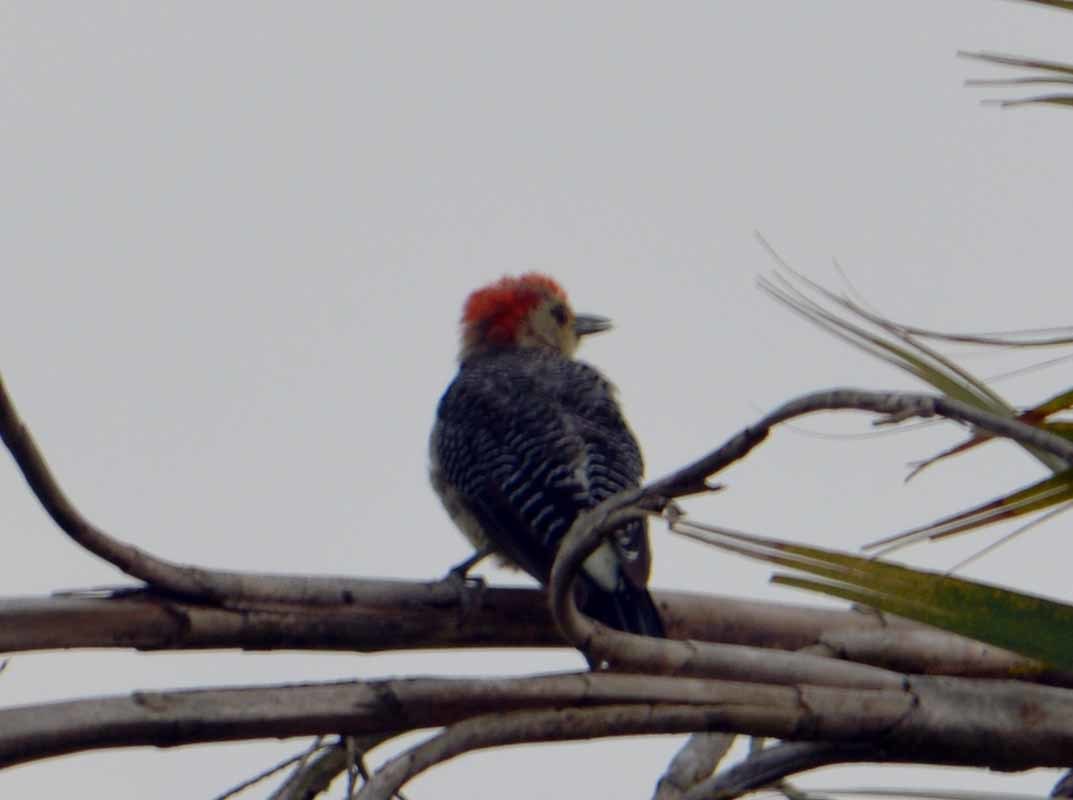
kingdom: Animalia
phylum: Chordata
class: Aves
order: Piciformes
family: Picidae
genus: Melanerpes
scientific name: Melanerpes aurifrons
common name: Golden-fronted woodpecker
